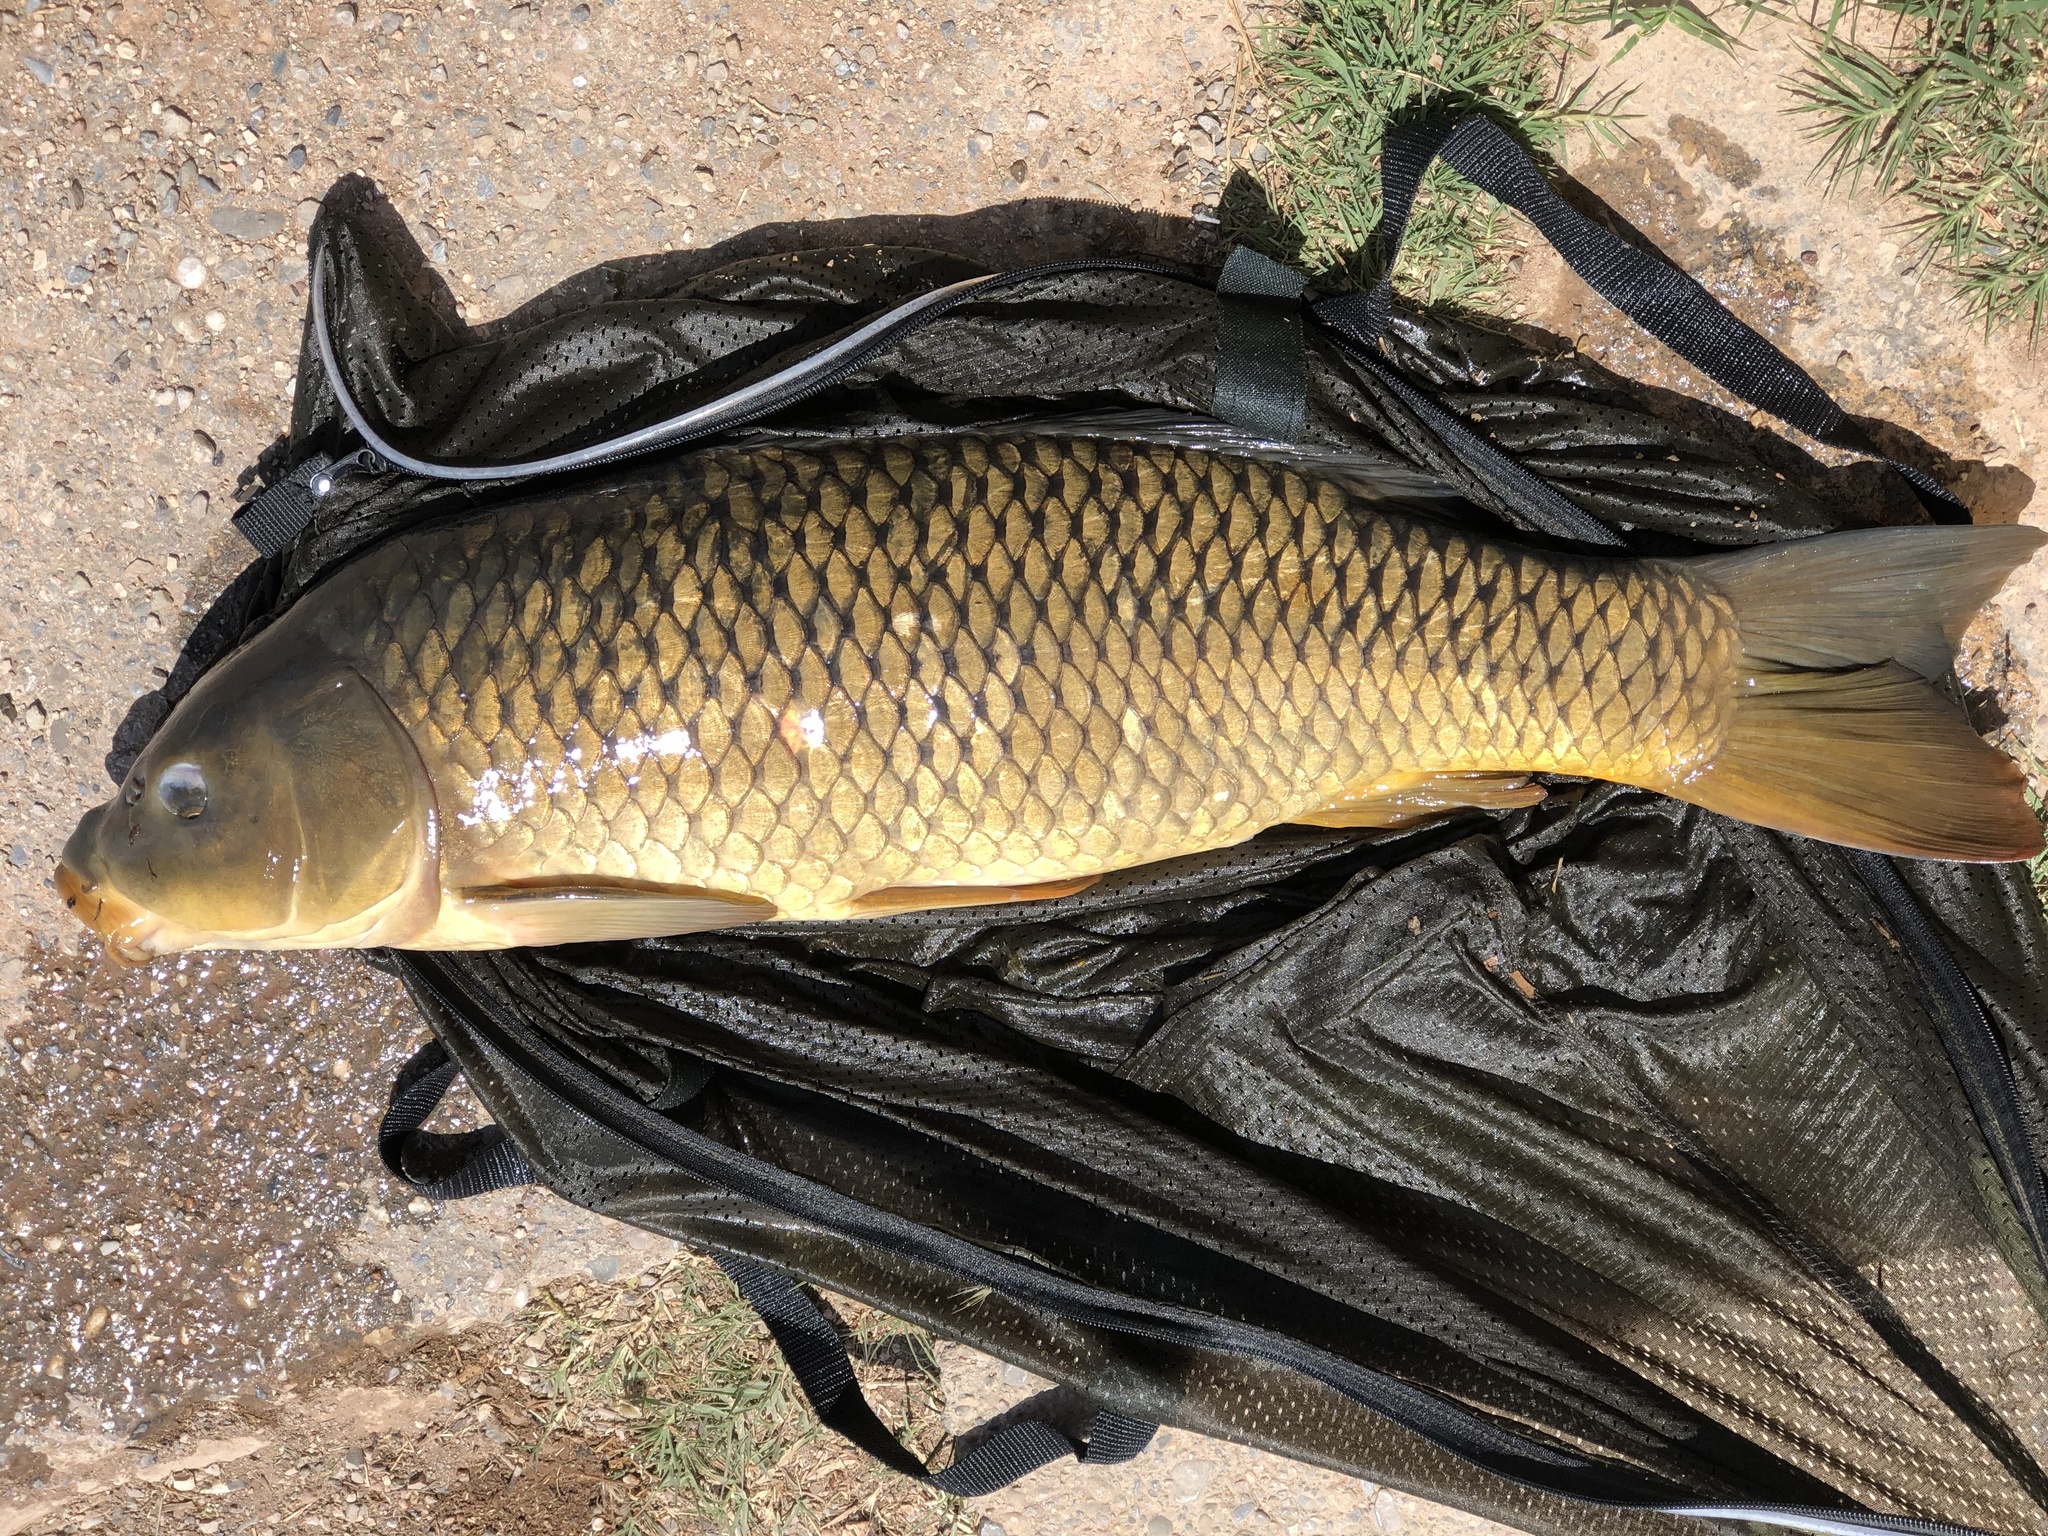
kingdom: Animalia
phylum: Chordata
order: Cypriniformes
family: Cyprinidae
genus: Cyprinus
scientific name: Cyprinus carpio
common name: Common carp
